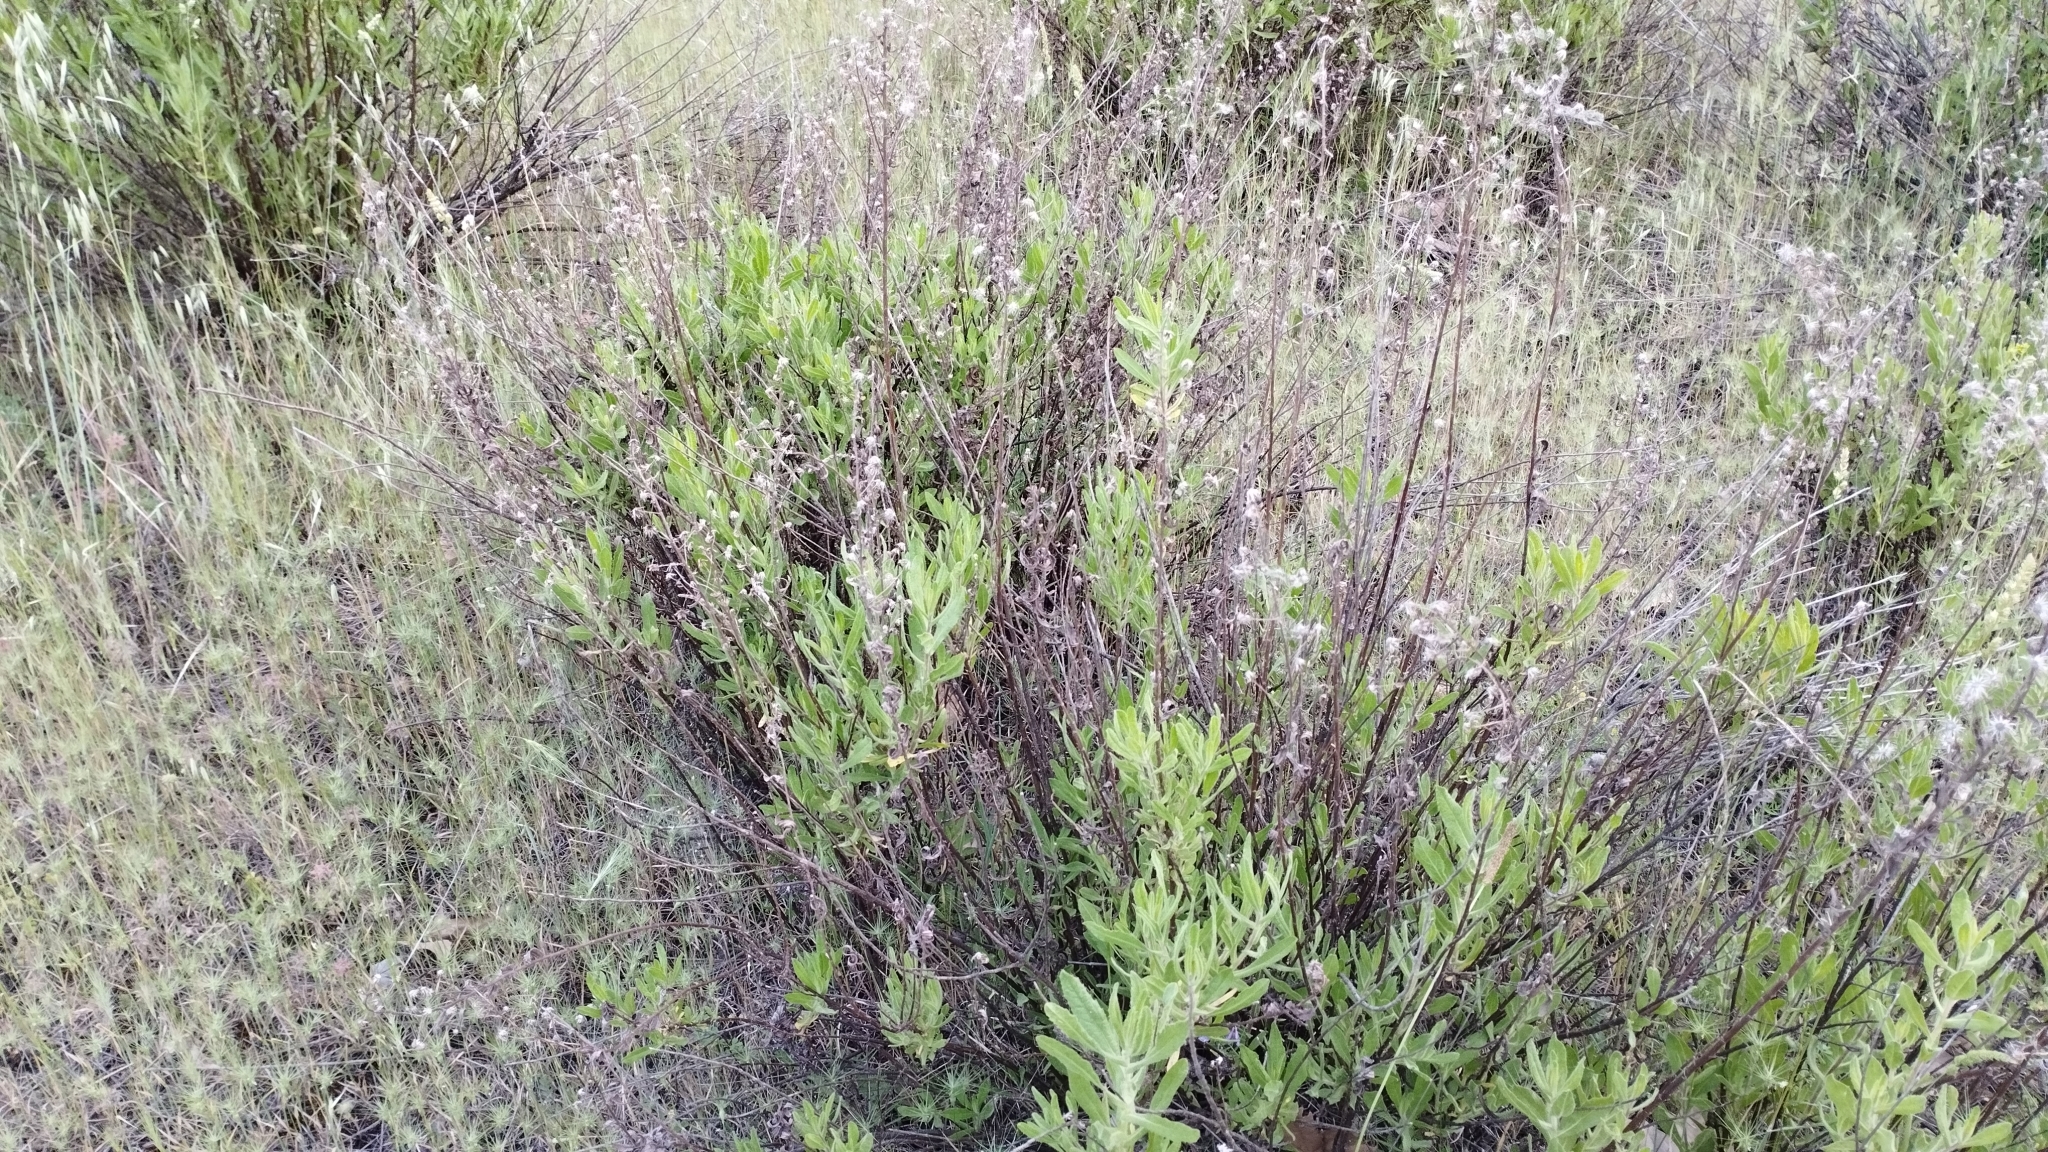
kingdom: Plantae
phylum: Tracheophyta
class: Magnoliopsida
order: Asterales
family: Asteraceae
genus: Dittrichia
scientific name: Dittrichia viscosa
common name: Woody fleabane
